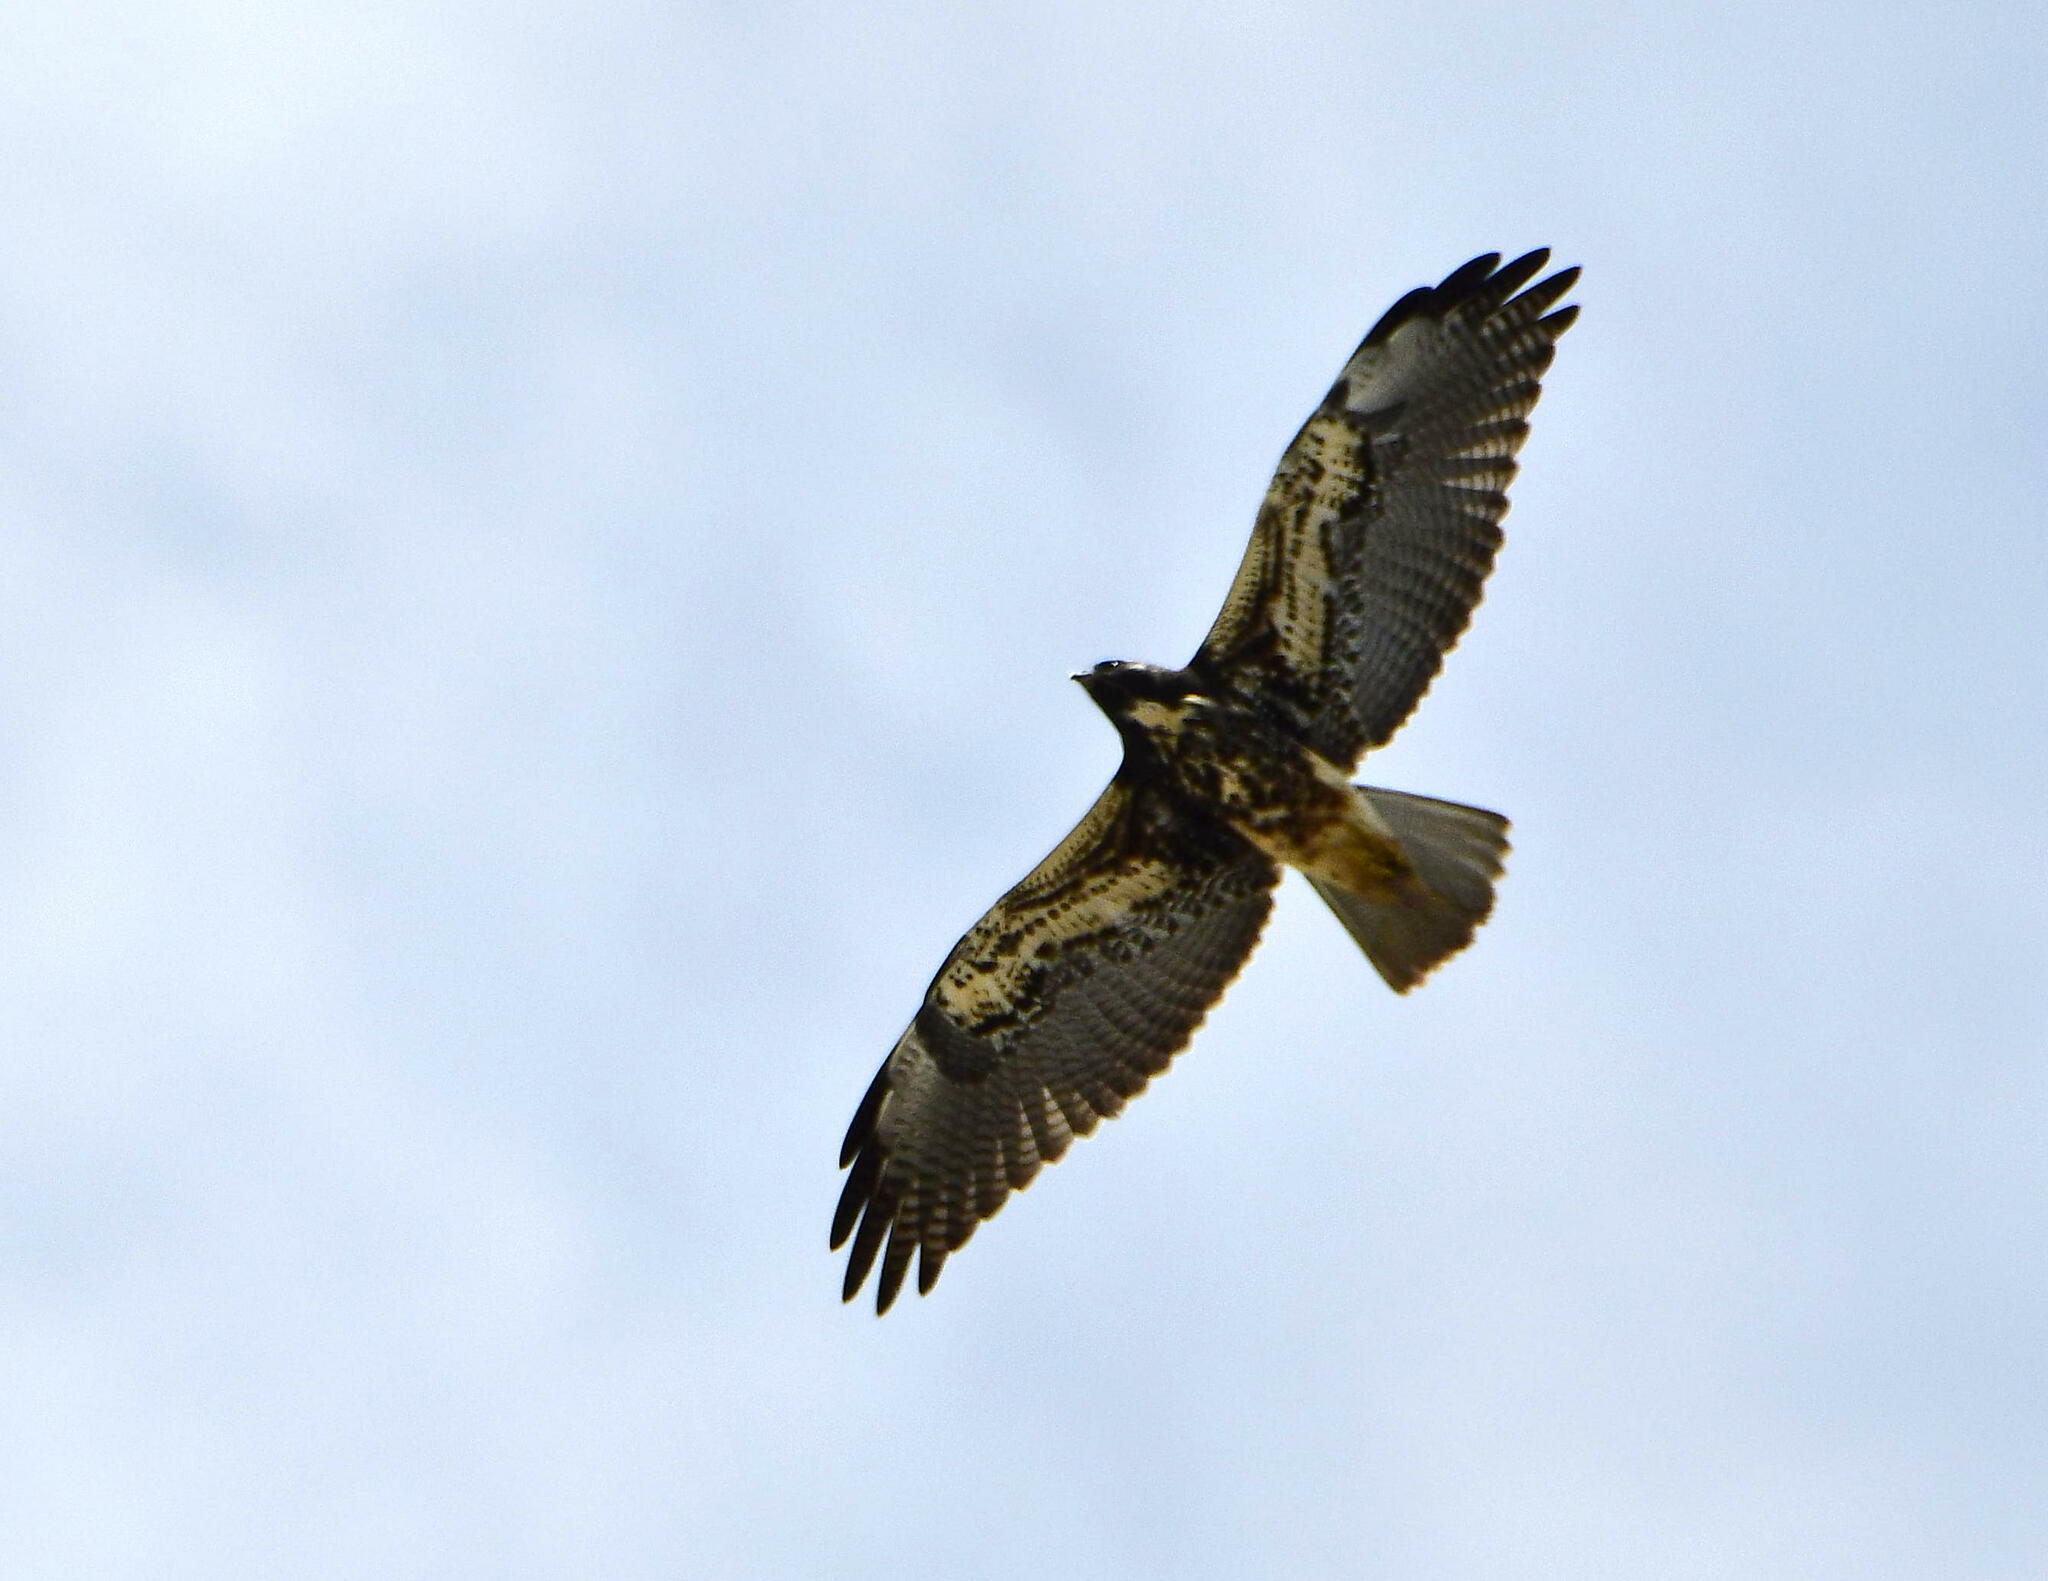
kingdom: Animalia
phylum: Chordata
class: Aves
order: Accipitriformes
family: Accipitridae
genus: Buteo
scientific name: Buteo albicaudatus
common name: White-tailed hawk
